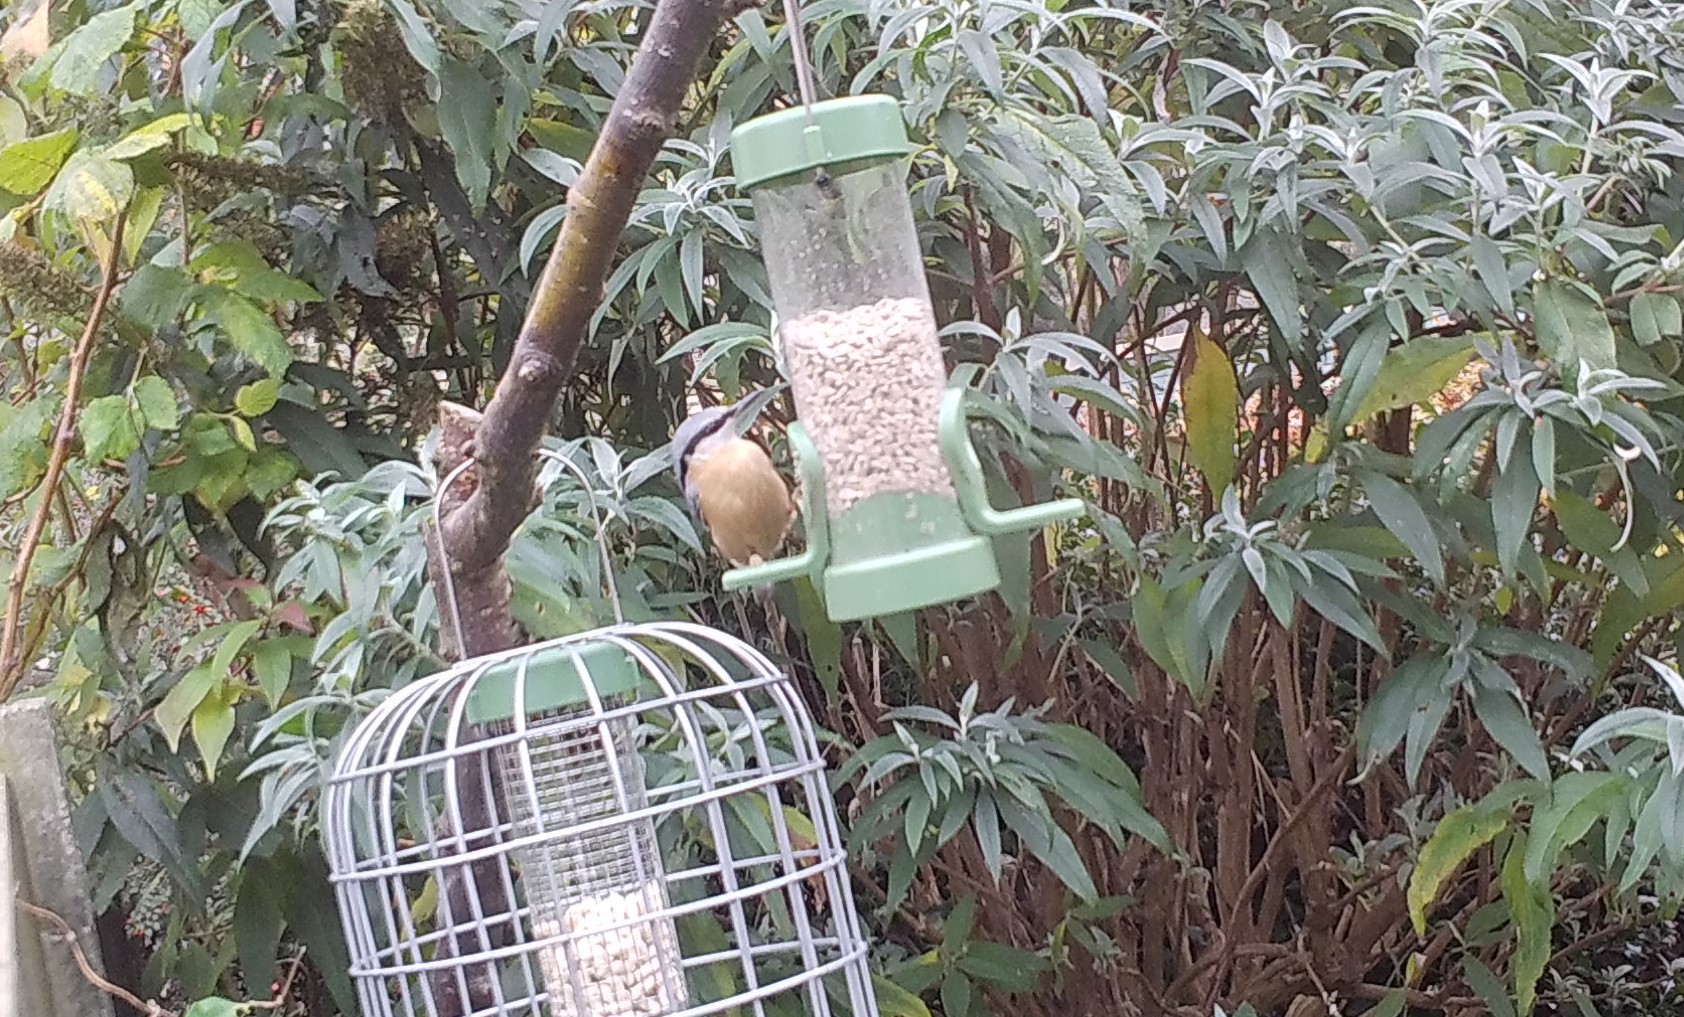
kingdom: Animalia
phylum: Chordata
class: Aves
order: Passeriformes
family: Sittidae
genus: Sitta
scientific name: Sitta europaea
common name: Eurasian nuthatch
